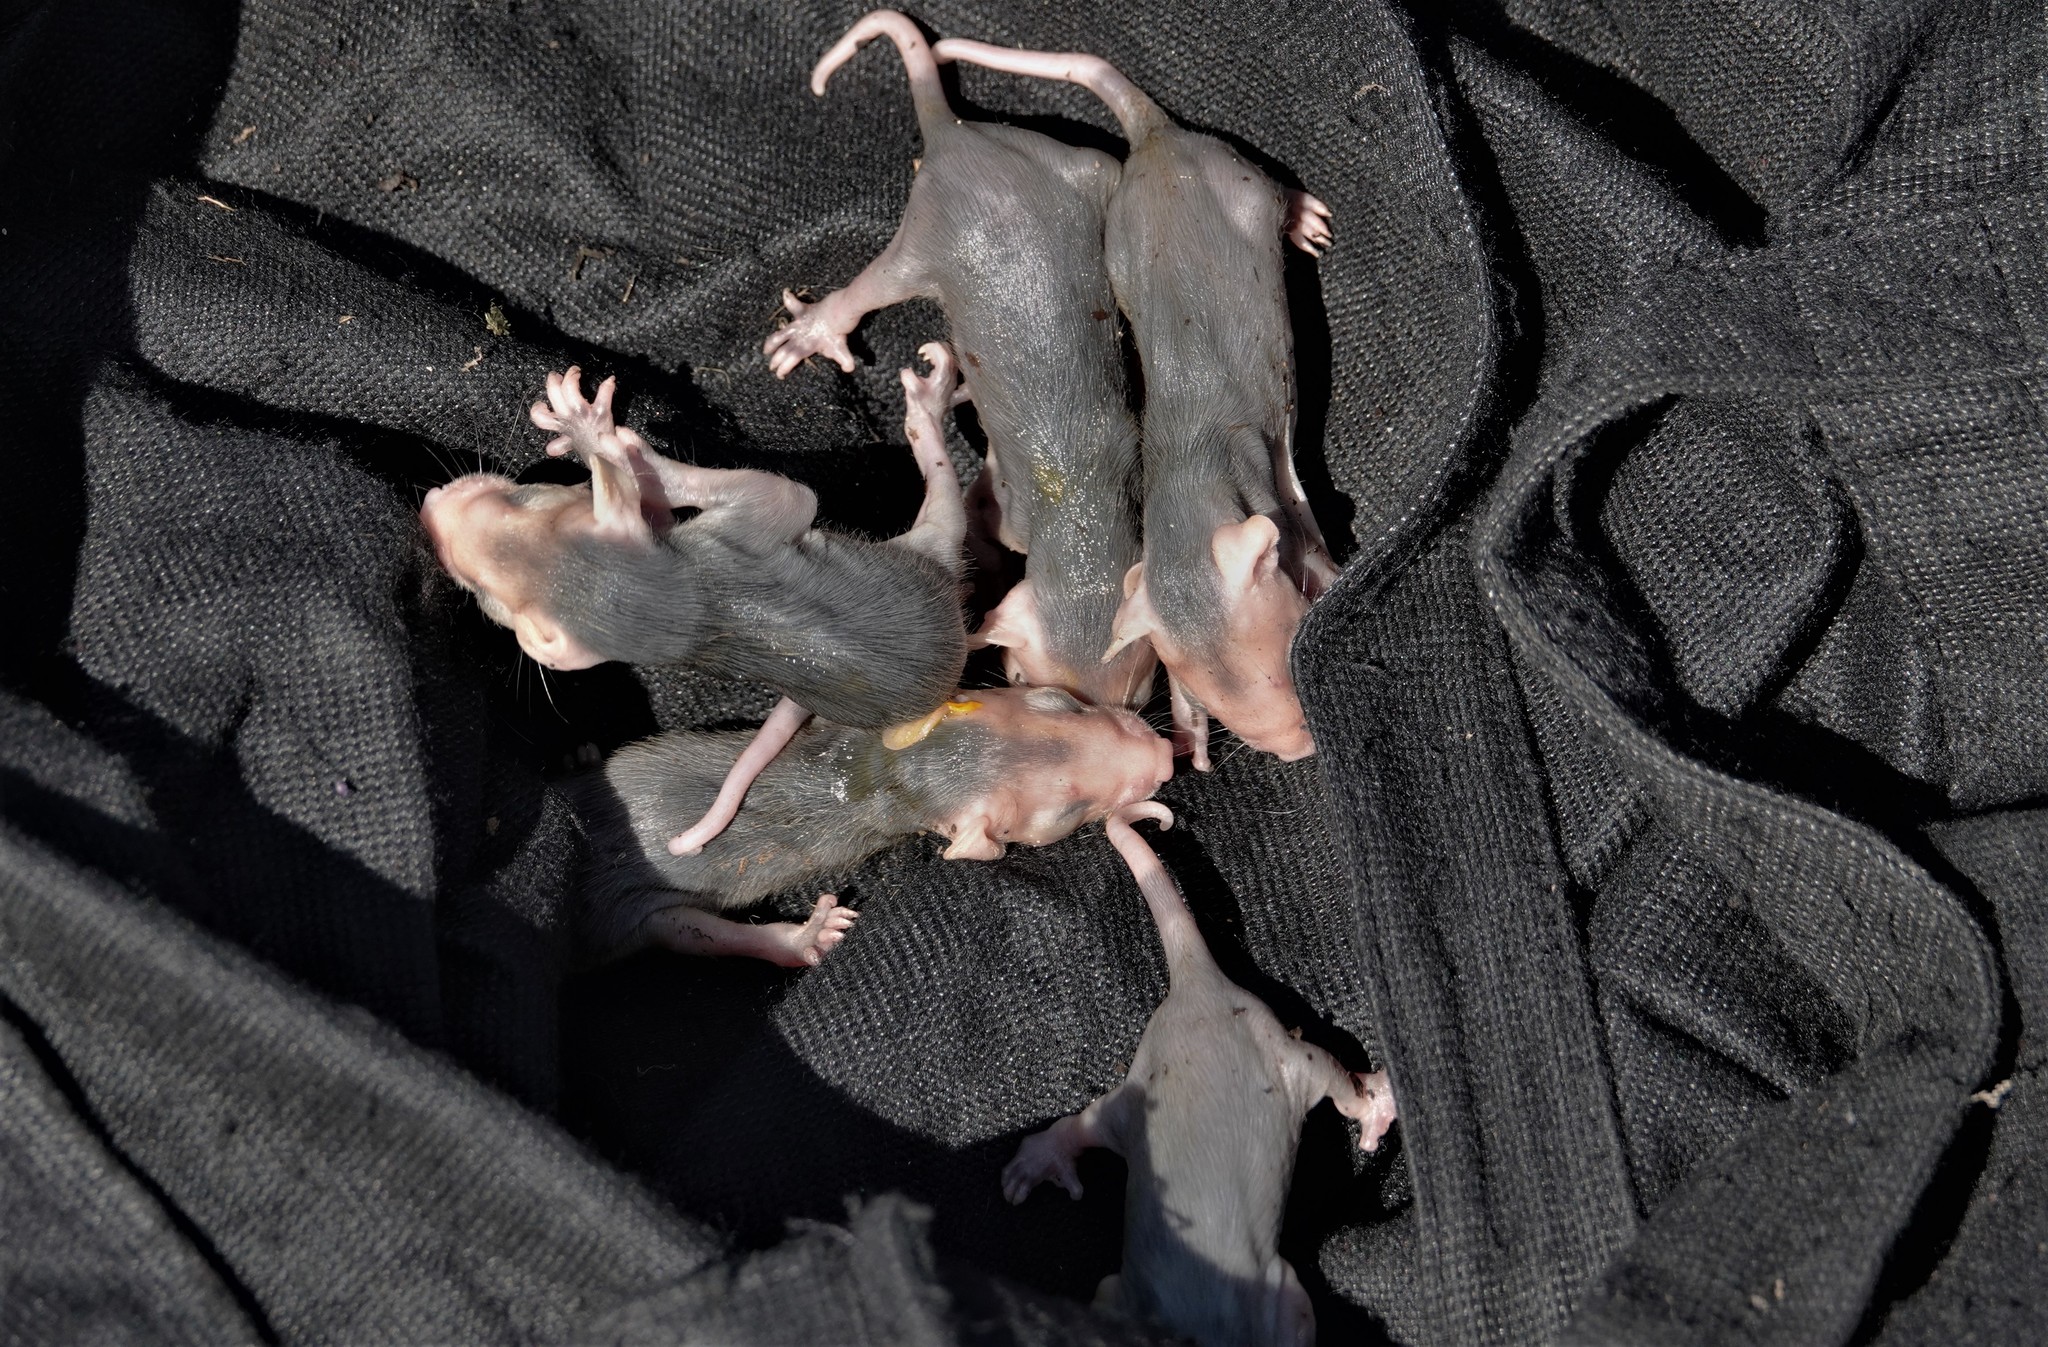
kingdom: Animalia
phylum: Chordata
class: Mammalia
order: Didelphimorphia
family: Didelphidae
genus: Didelphis
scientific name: Didelphis virginiana
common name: Virginia opossum
